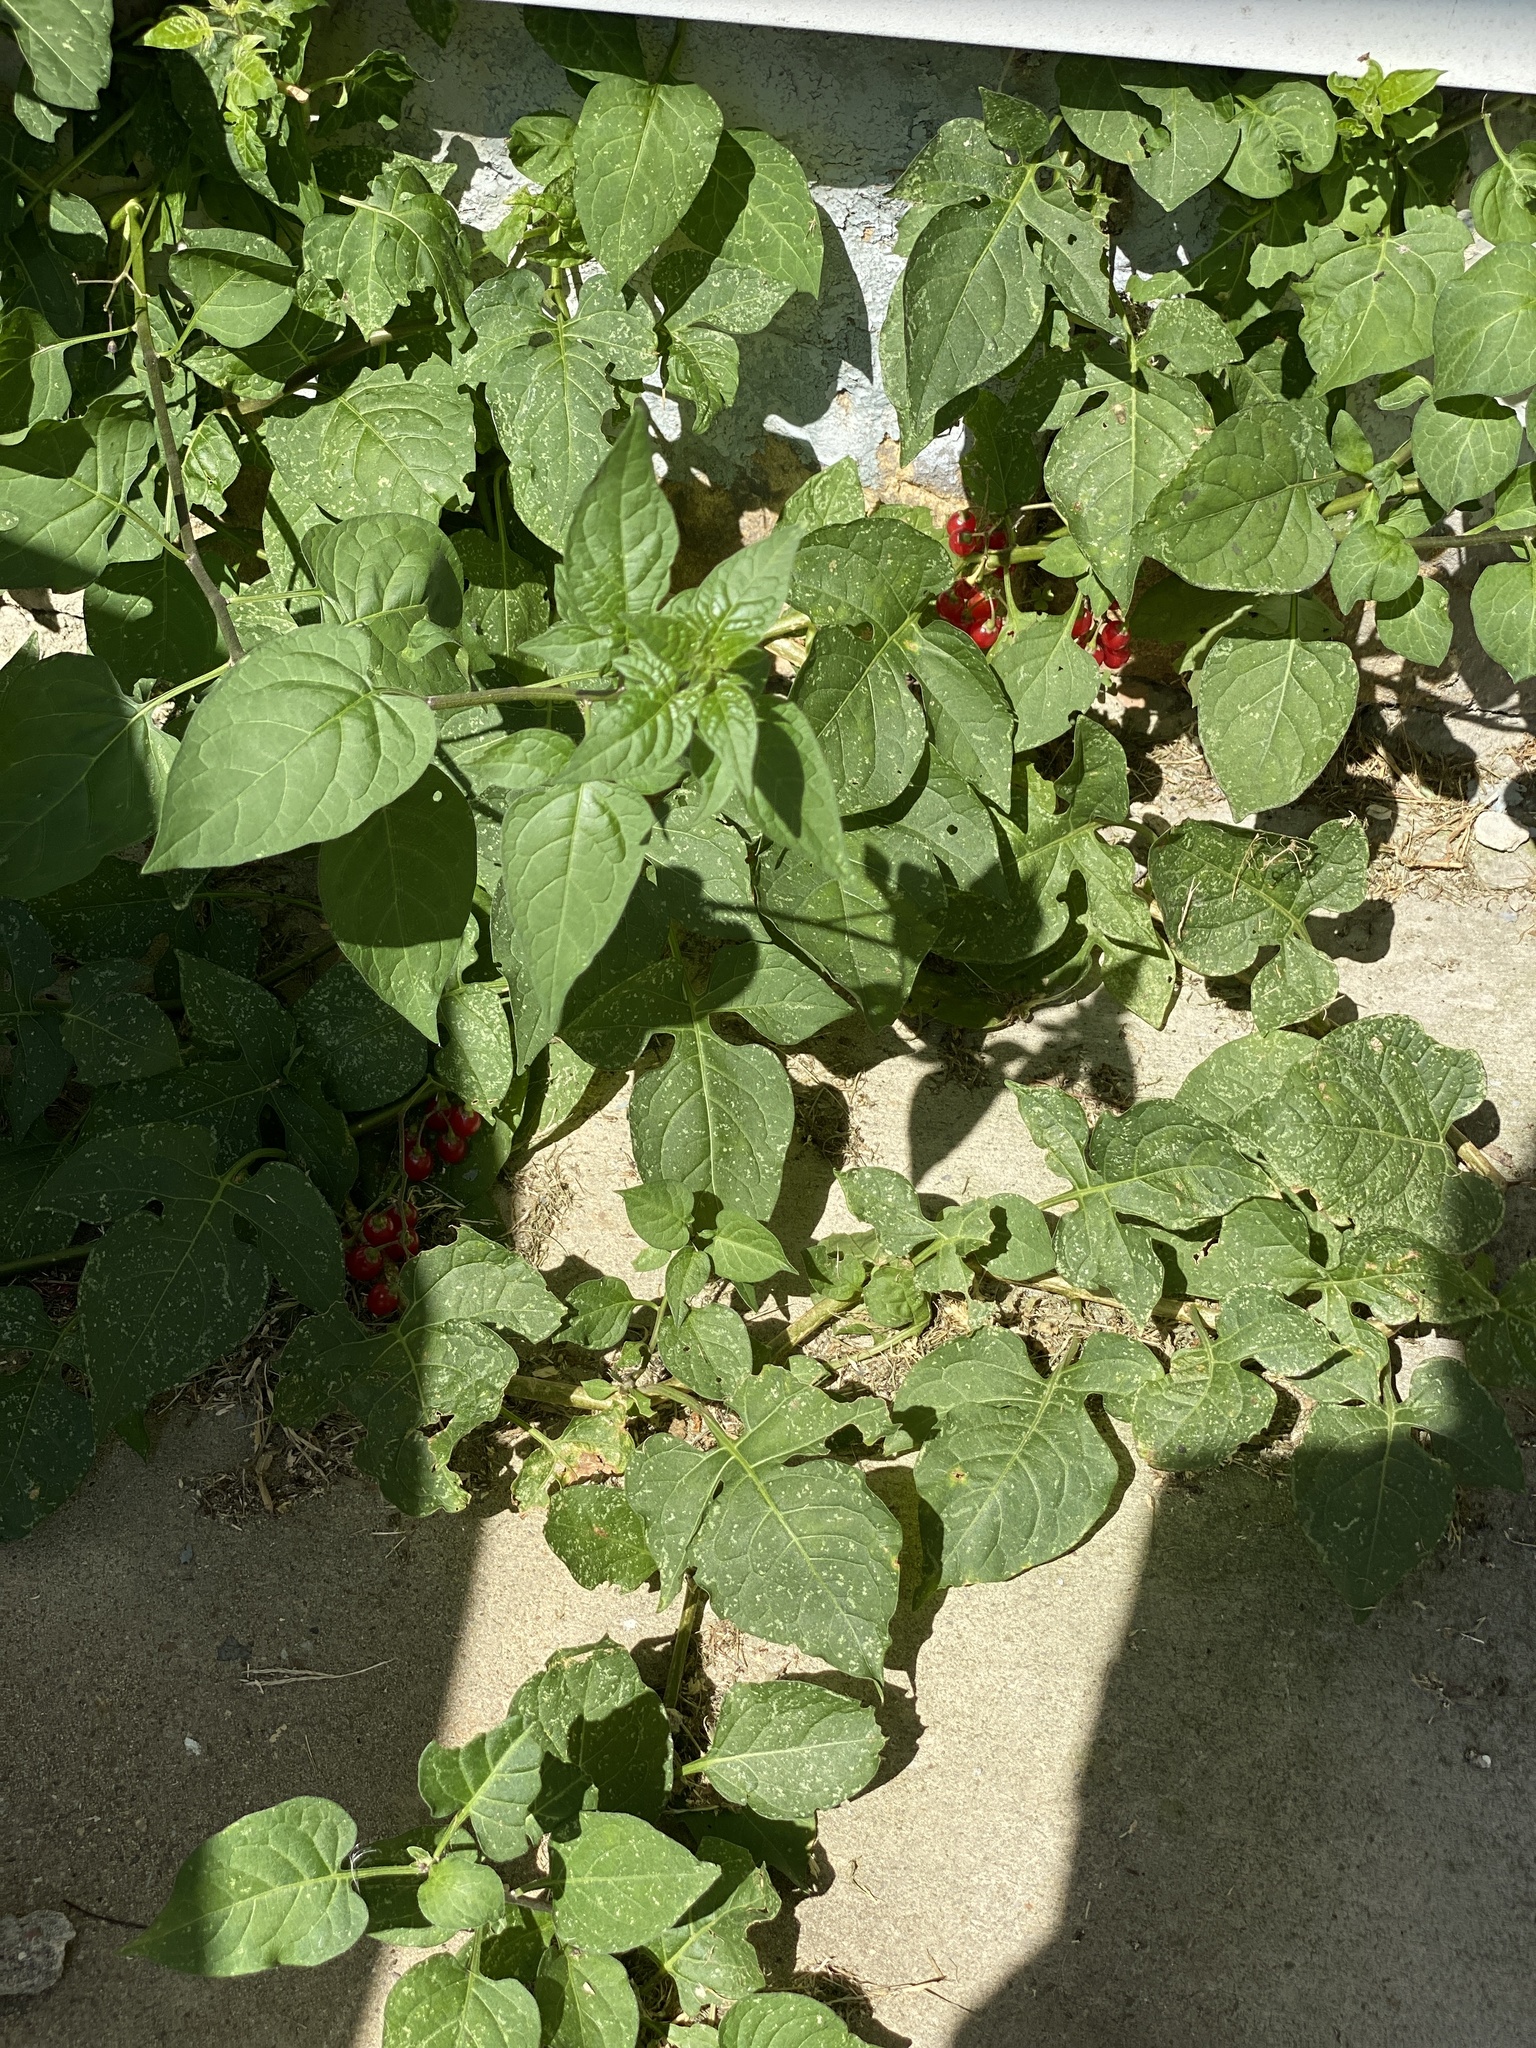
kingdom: Plantae
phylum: Tracheophyta
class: Magnoliopsida
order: Solanales
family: Solanaceae
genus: Solanum
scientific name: Solanum dulcamara
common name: Climbing nightshade
